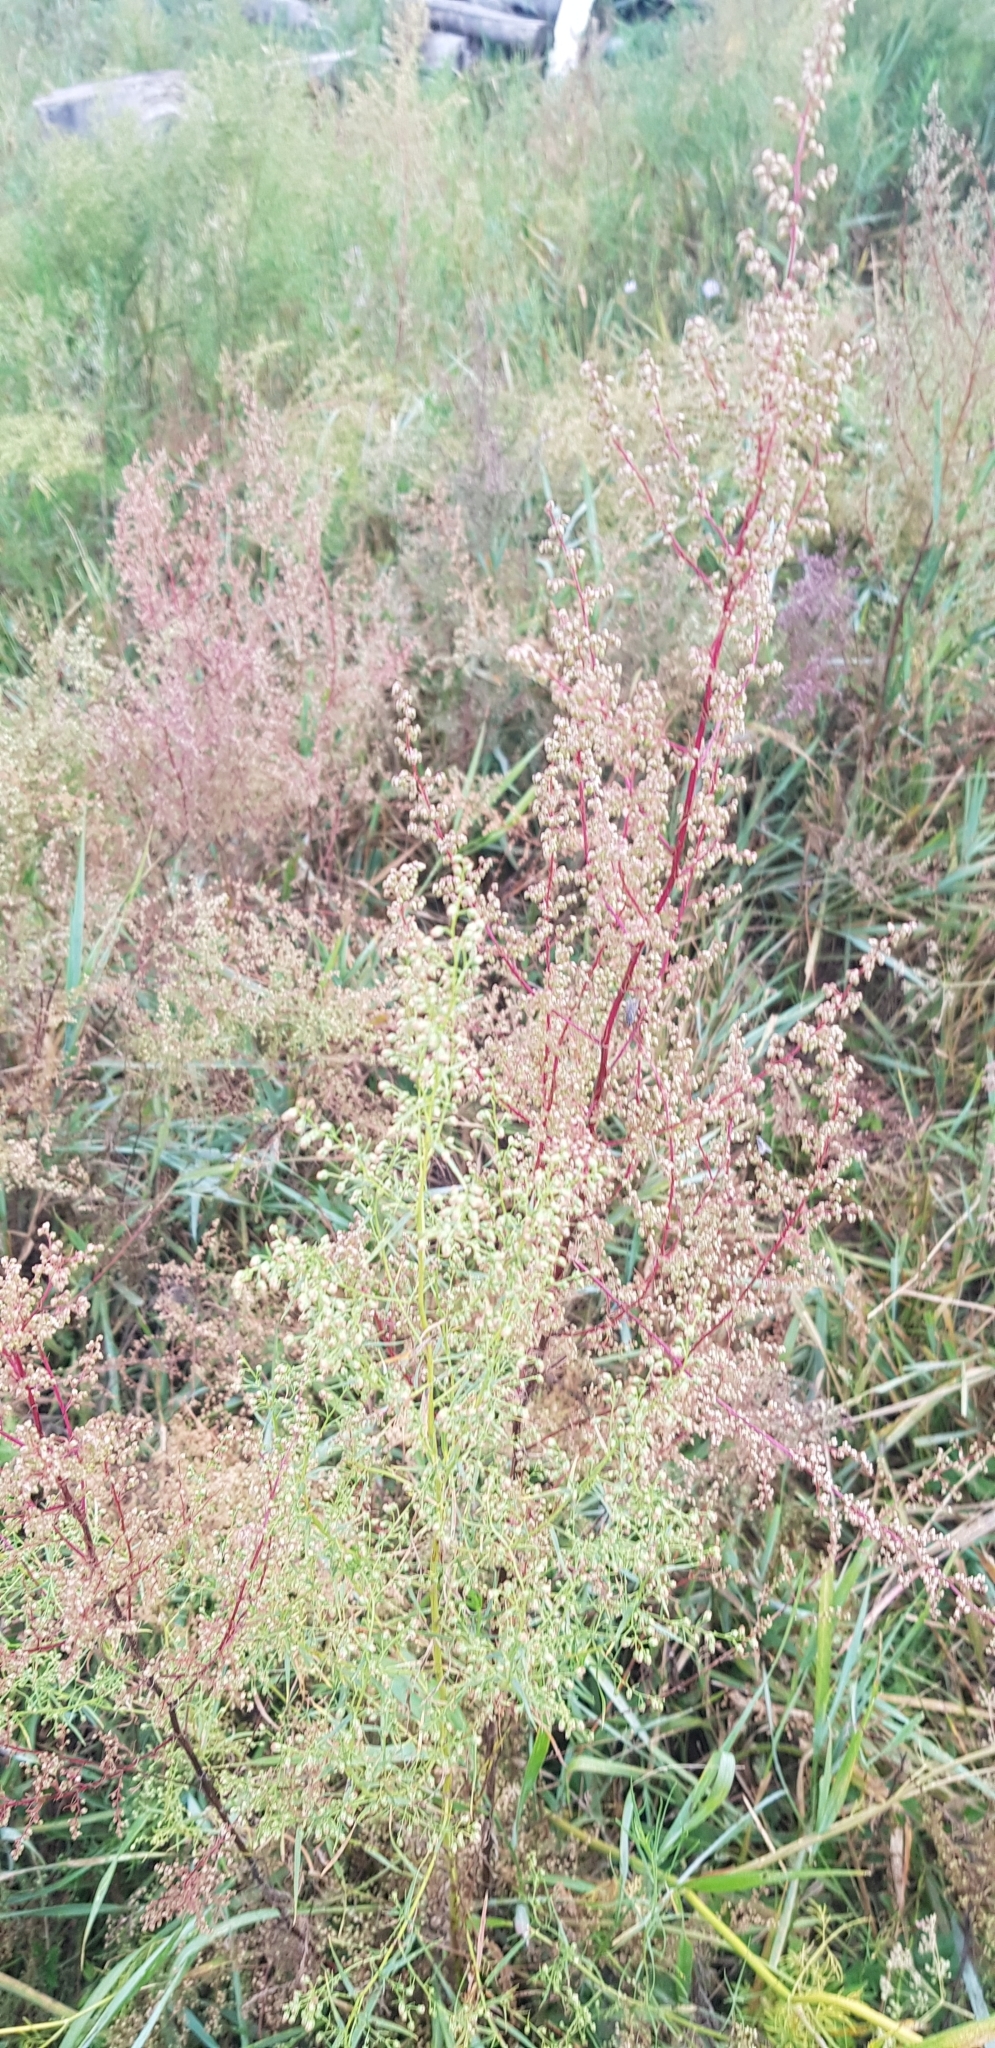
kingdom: Plantae
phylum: Tracheophyta
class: Magnoliopsida
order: Asterales
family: Asteraceae
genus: Artemisia
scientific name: Artemisia scoparia
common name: Redstem wormwood
